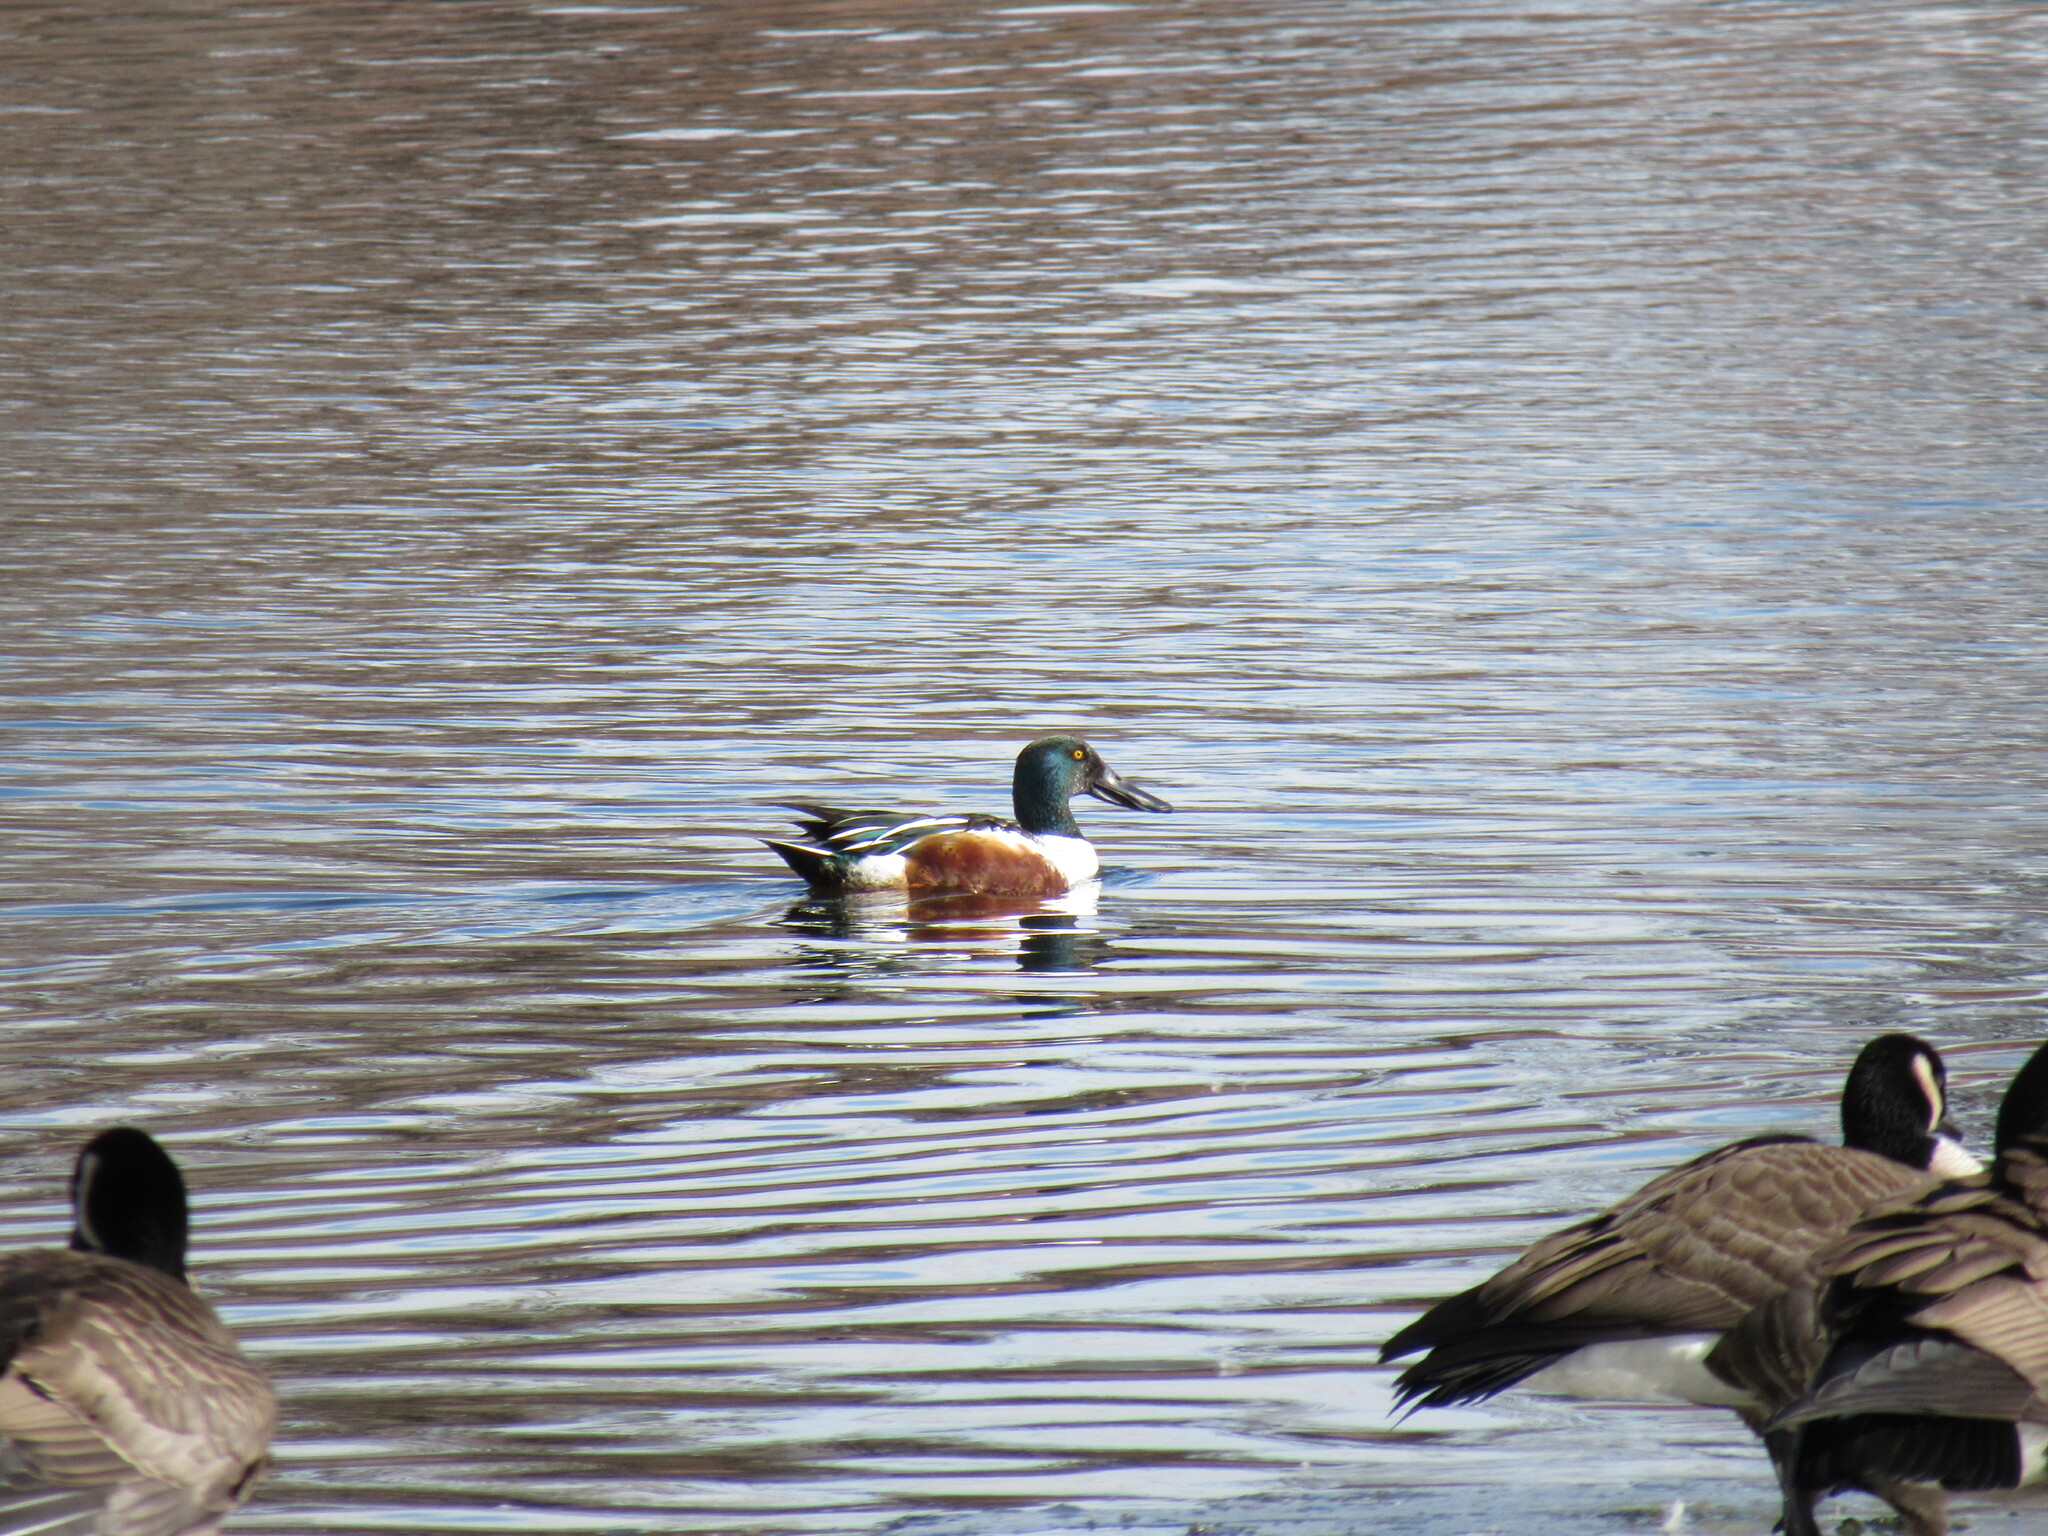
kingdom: Animalia
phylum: Chordata
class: Aves
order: Anseriformes
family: Anatidae
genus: Spatula
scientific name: Spatula clypeata
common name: Northern shoveler
